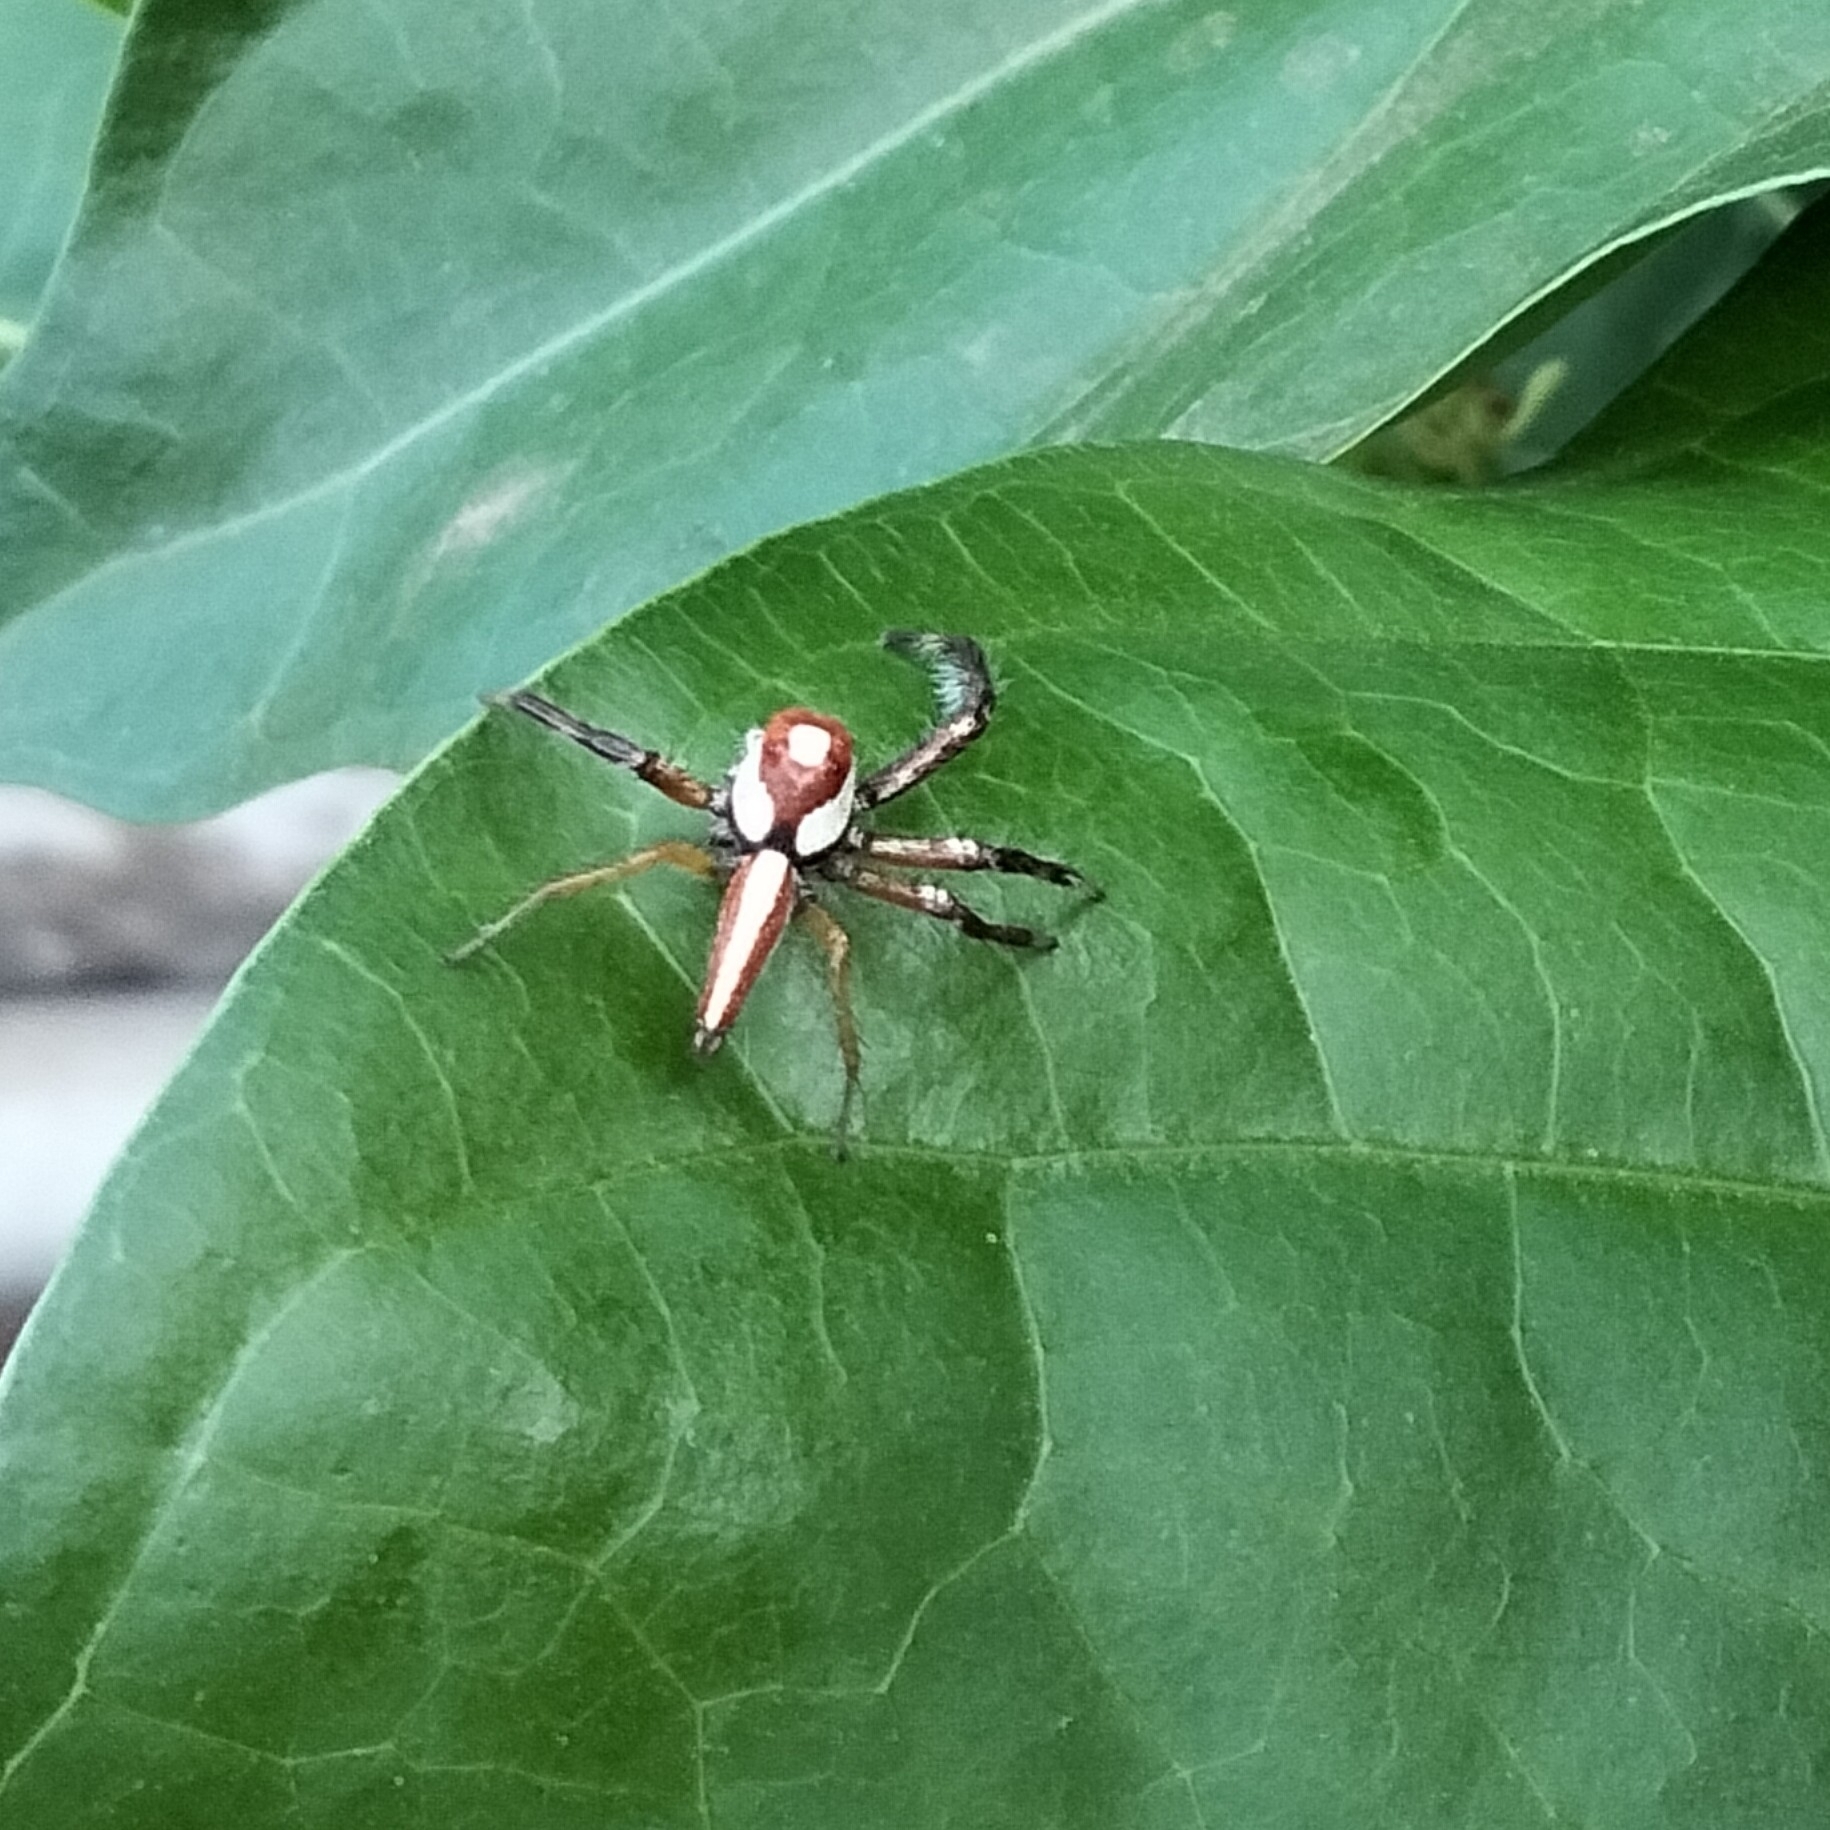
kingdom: Animalia
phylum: Arthropoda
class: Arachnida
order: Araneae
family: Salticidae
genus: Telamonia
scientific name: Telamonia dimidiata
